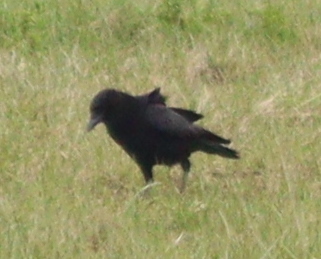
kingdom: Animalia
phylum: Chordata
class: Aves
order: Passeriformes
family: Corvidae
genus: Corvus
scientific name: Corvus corone
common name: Carrion crow
